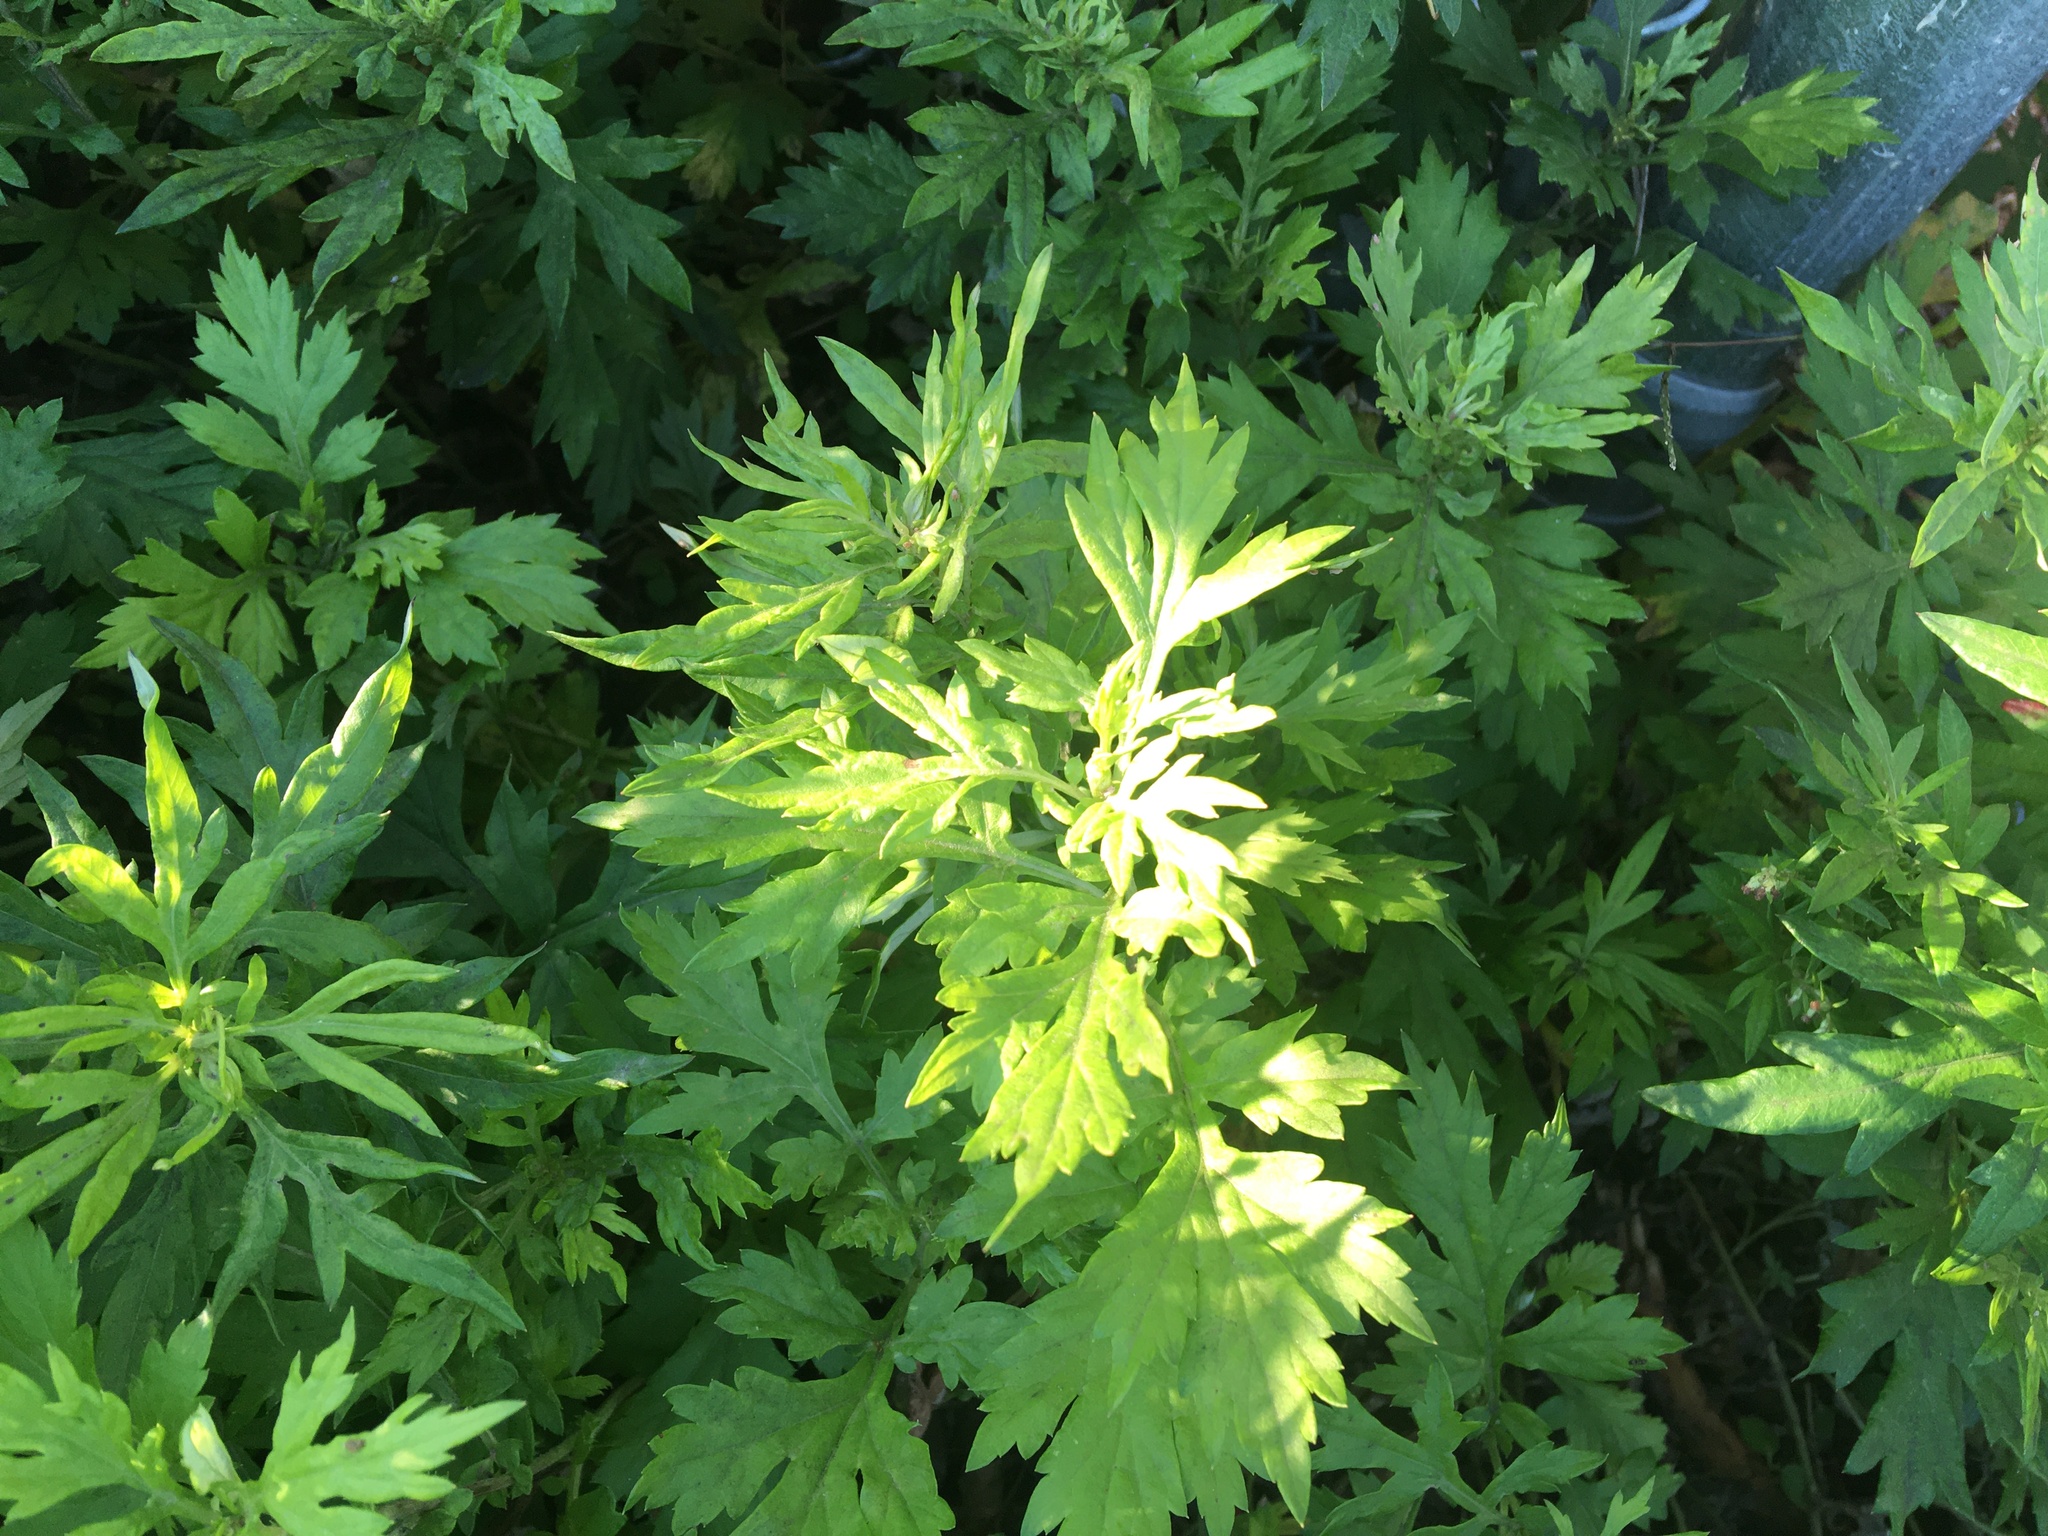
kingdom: Plantae
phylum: Tracheophyta
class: Magnoliopsida
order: Asterales
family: Asteraceae
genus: Artemisia
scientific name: Artemisia vulgaris
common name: Mugwort
